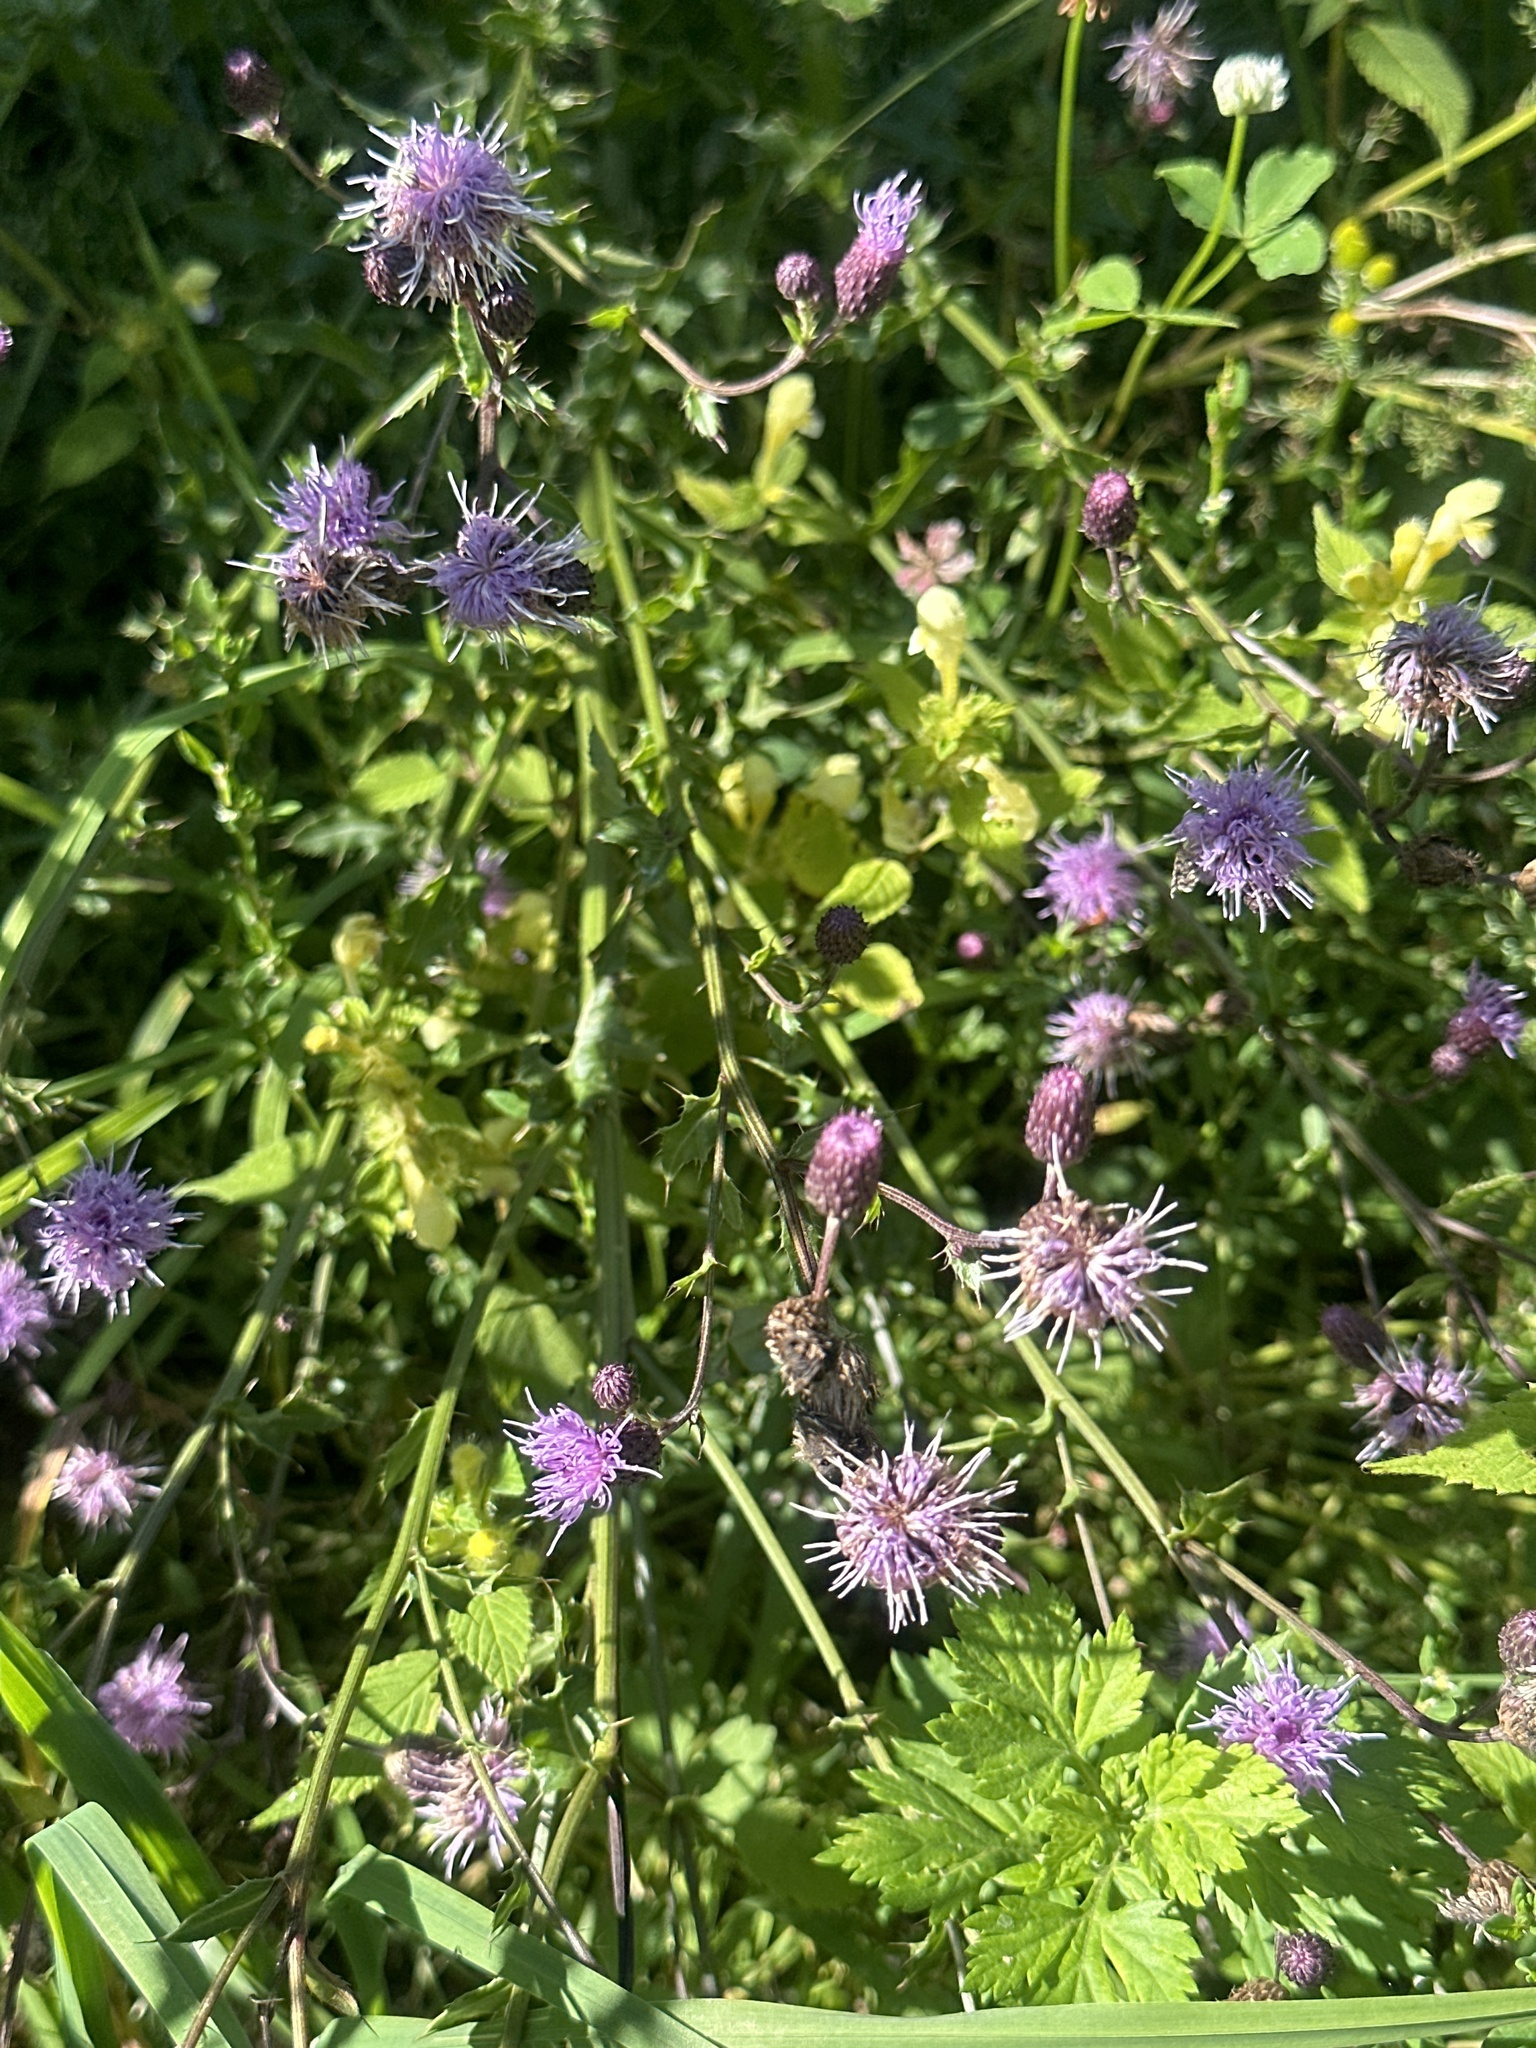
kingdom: Plantae
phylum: Tracheophyta
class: Magnoliopsida
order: Asterales
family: Asteraceae
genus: Cirsium
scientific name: Cirsium arvense
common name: Creeping thistle
